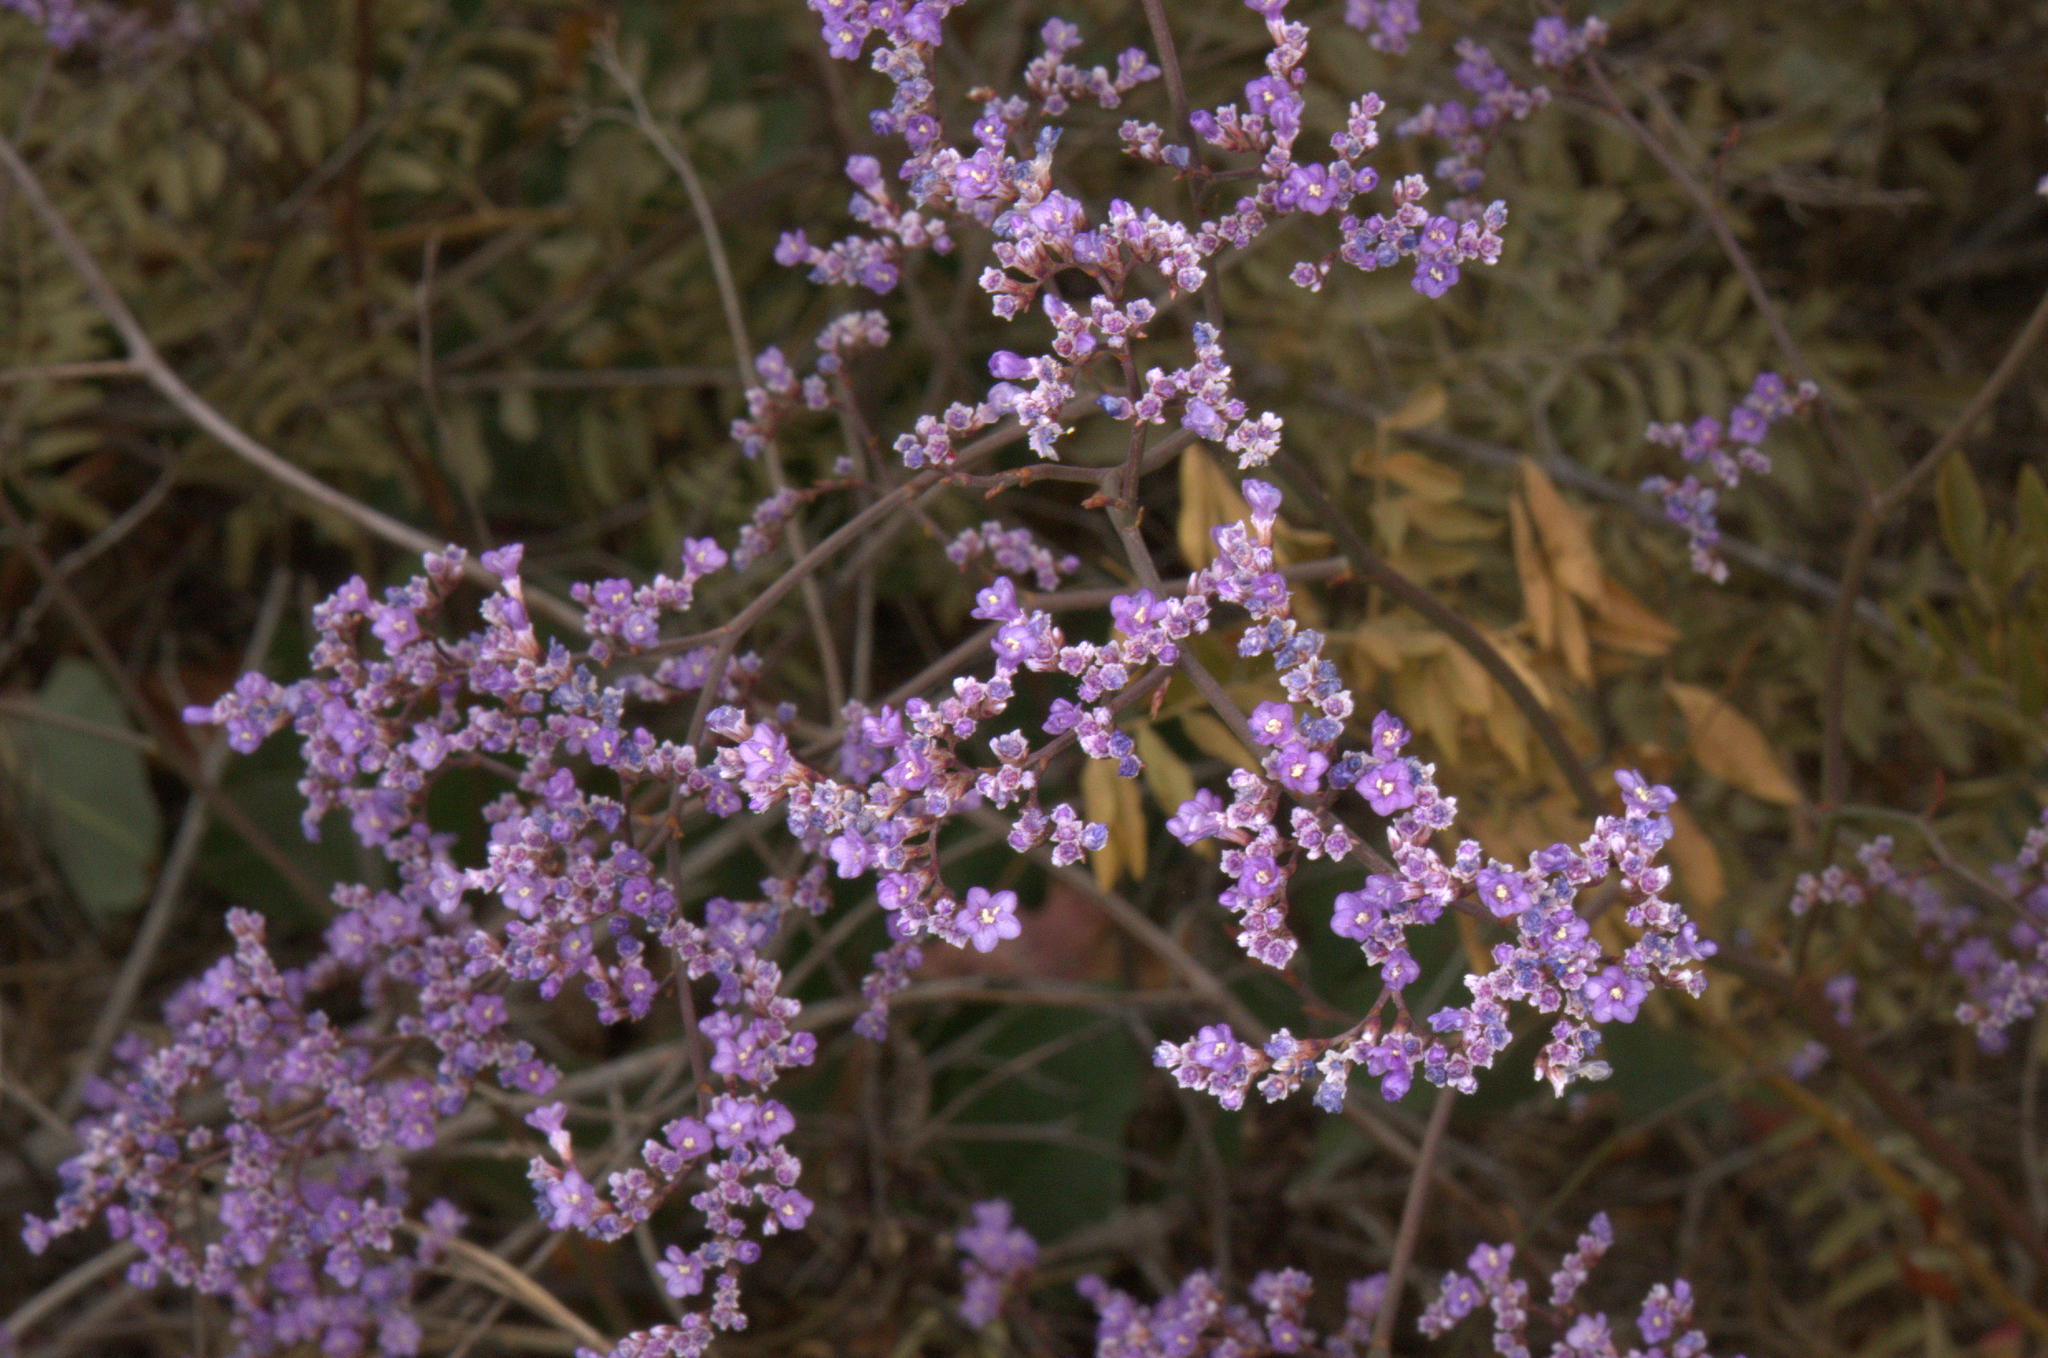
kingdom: Plantae
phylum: Tracheophyta
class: Magnoliopsida
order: Caryophyllales
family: Plumbaginaceae
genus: Limonium
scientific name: Limonium platyphyllum
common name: Florist's sea lavender
